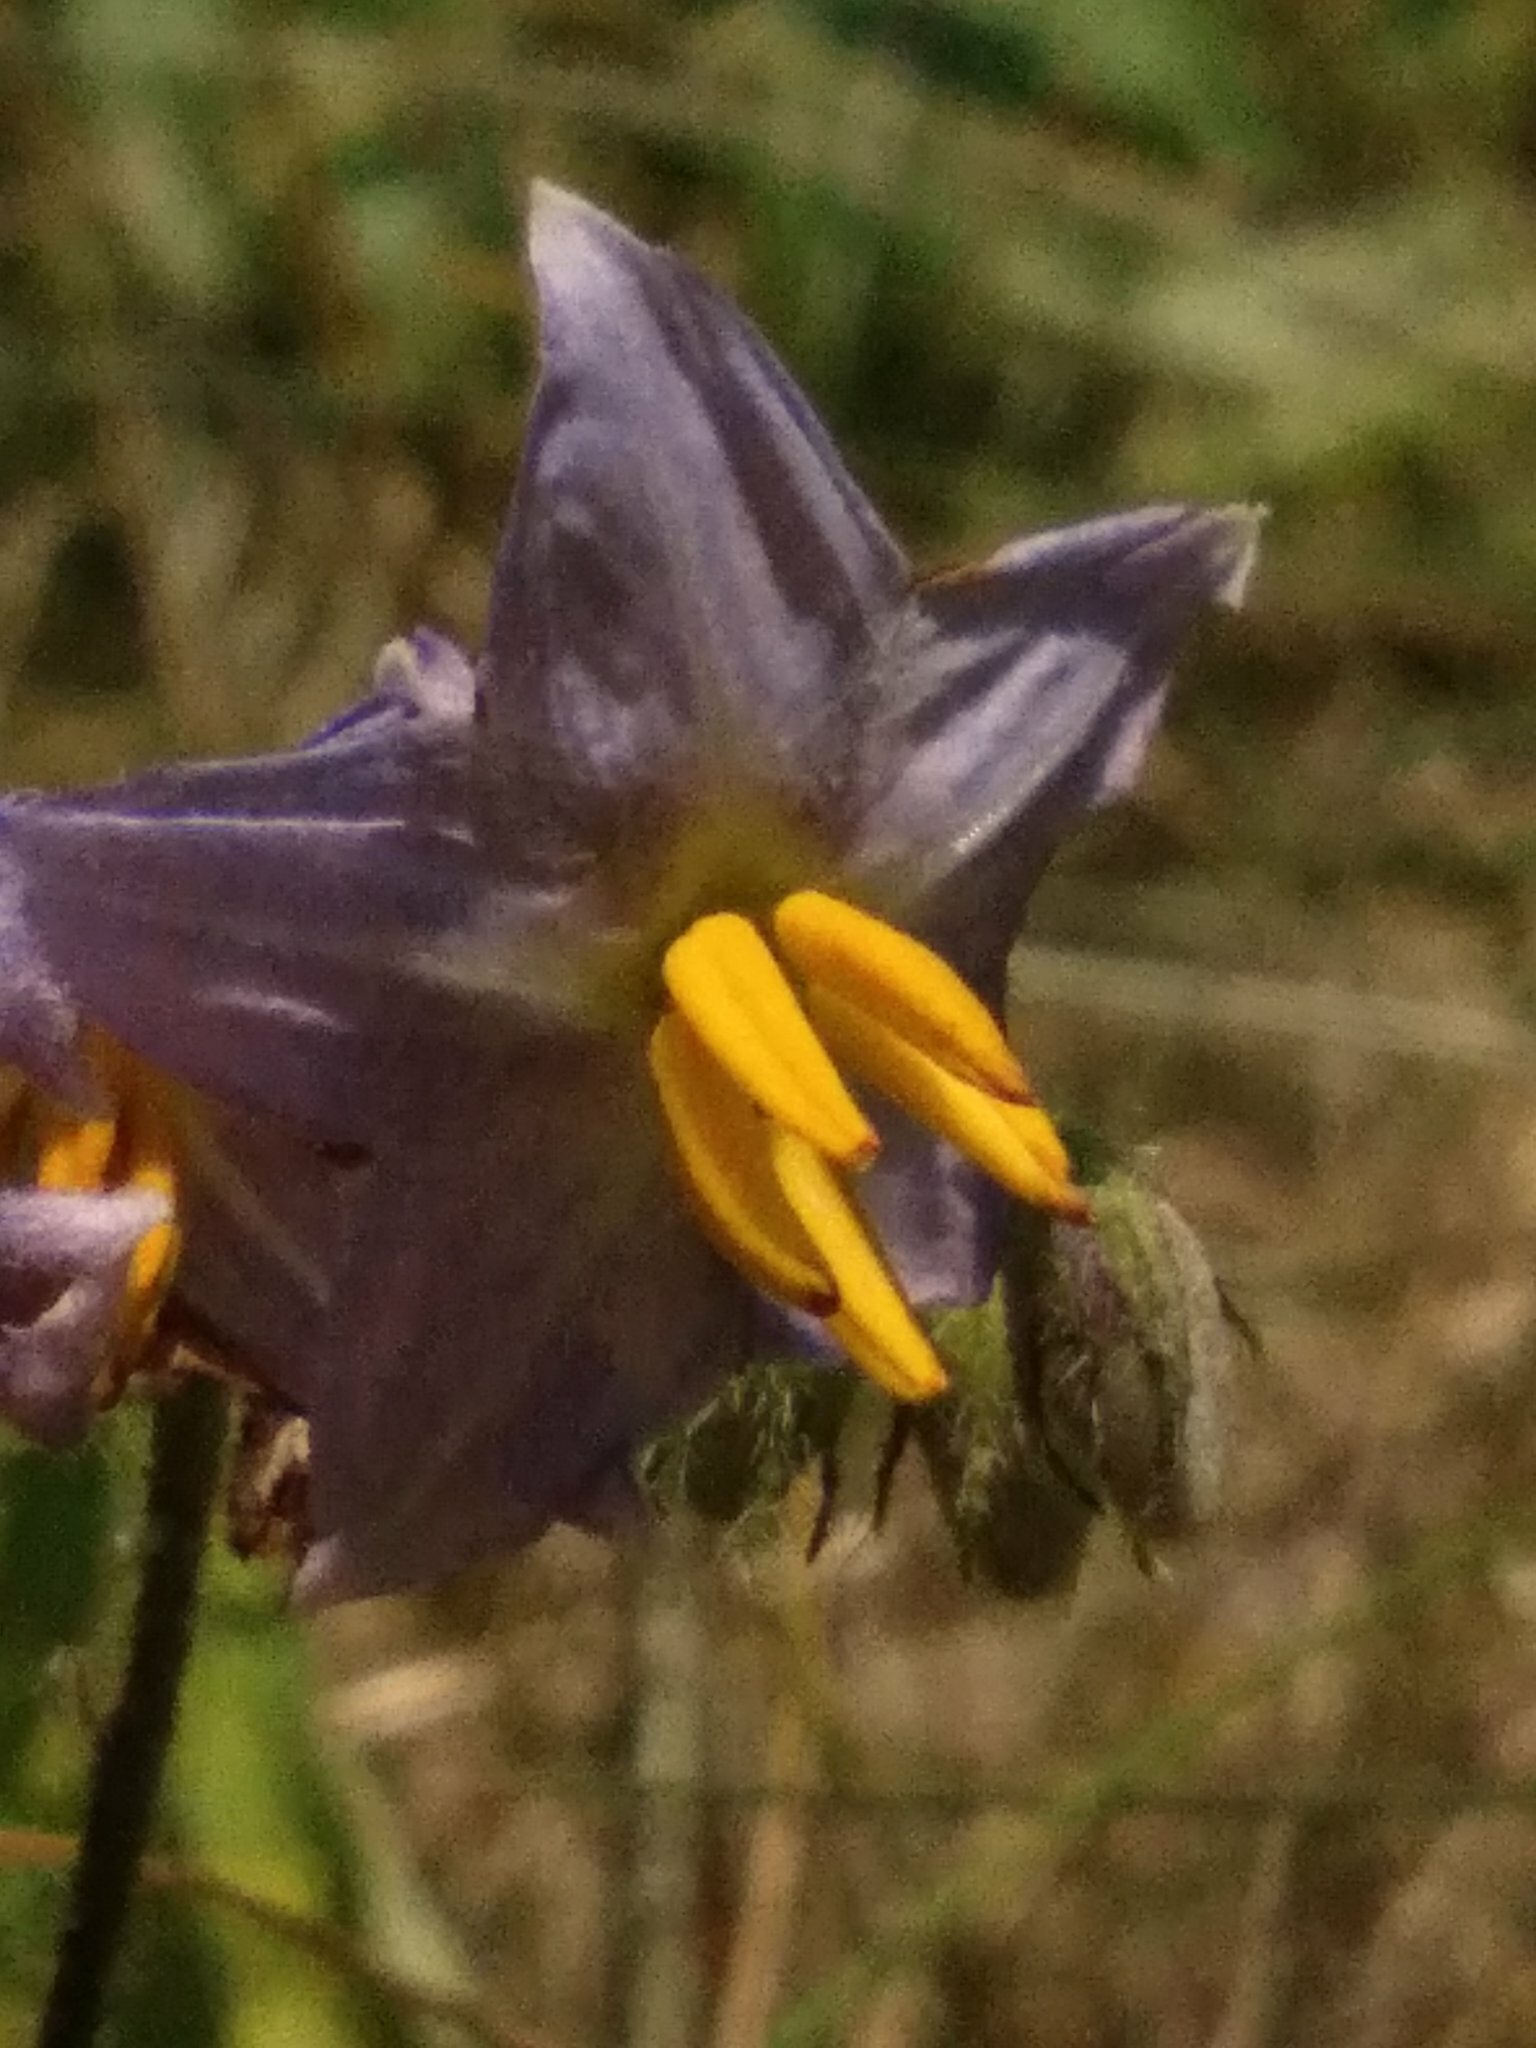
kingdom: Plantae
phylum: Tracheophyta
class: Magnoliopsida
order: Solanales
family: Solanaceae
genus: Solanum
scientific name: Solanum carolinense
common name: Horse-nettle
